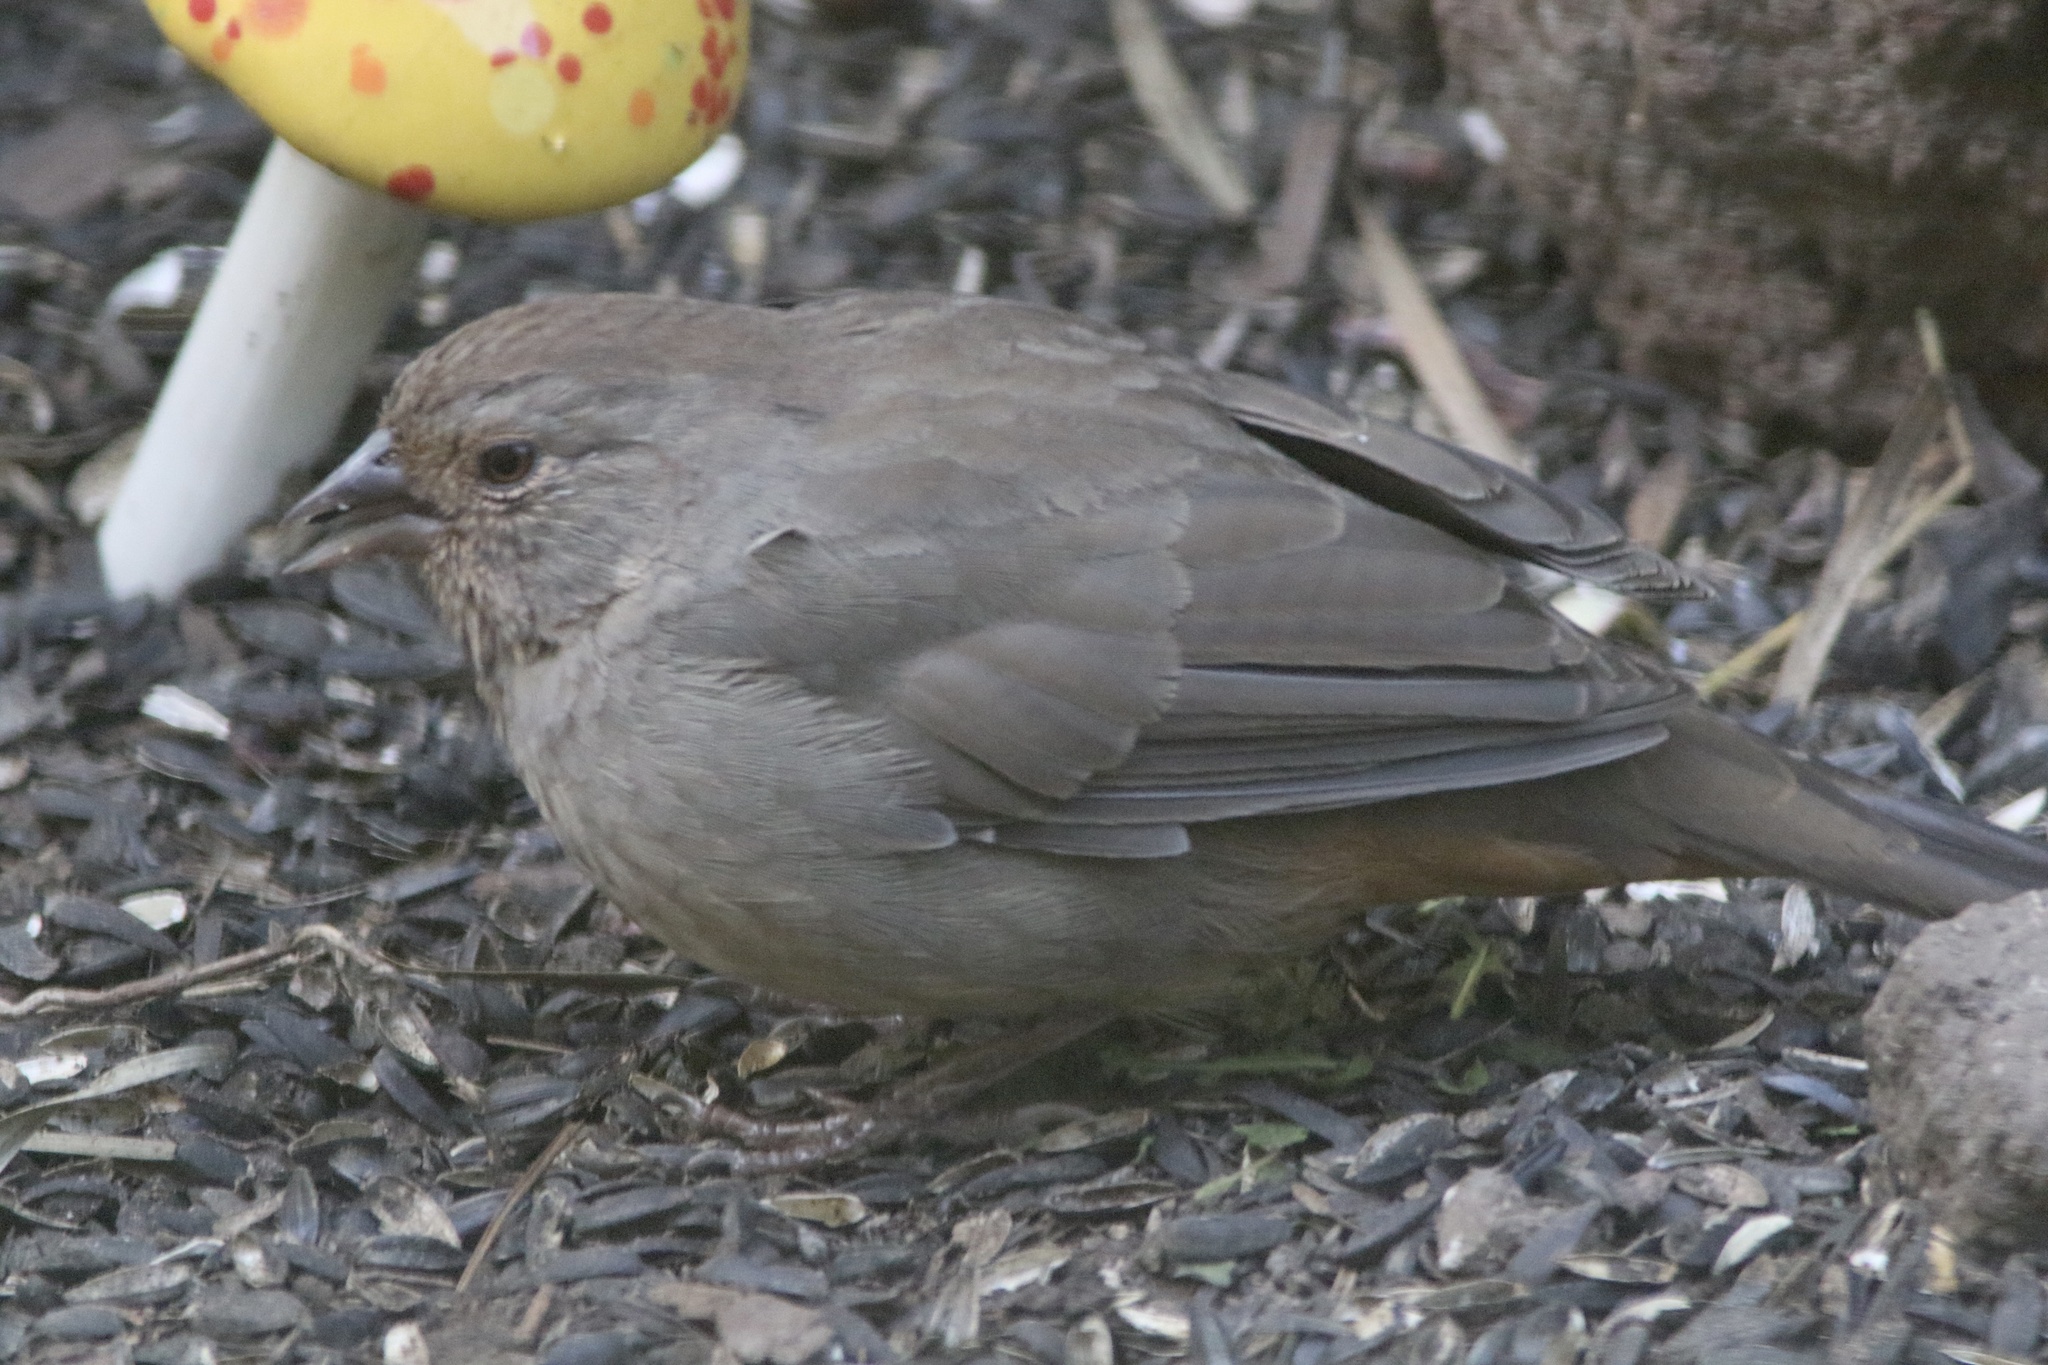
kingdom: Animalia
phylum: Chordata
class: Aves
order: Passeriformes
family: Passerellidae
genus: Melozone
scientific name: Melozone crissalis
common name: California towhee
